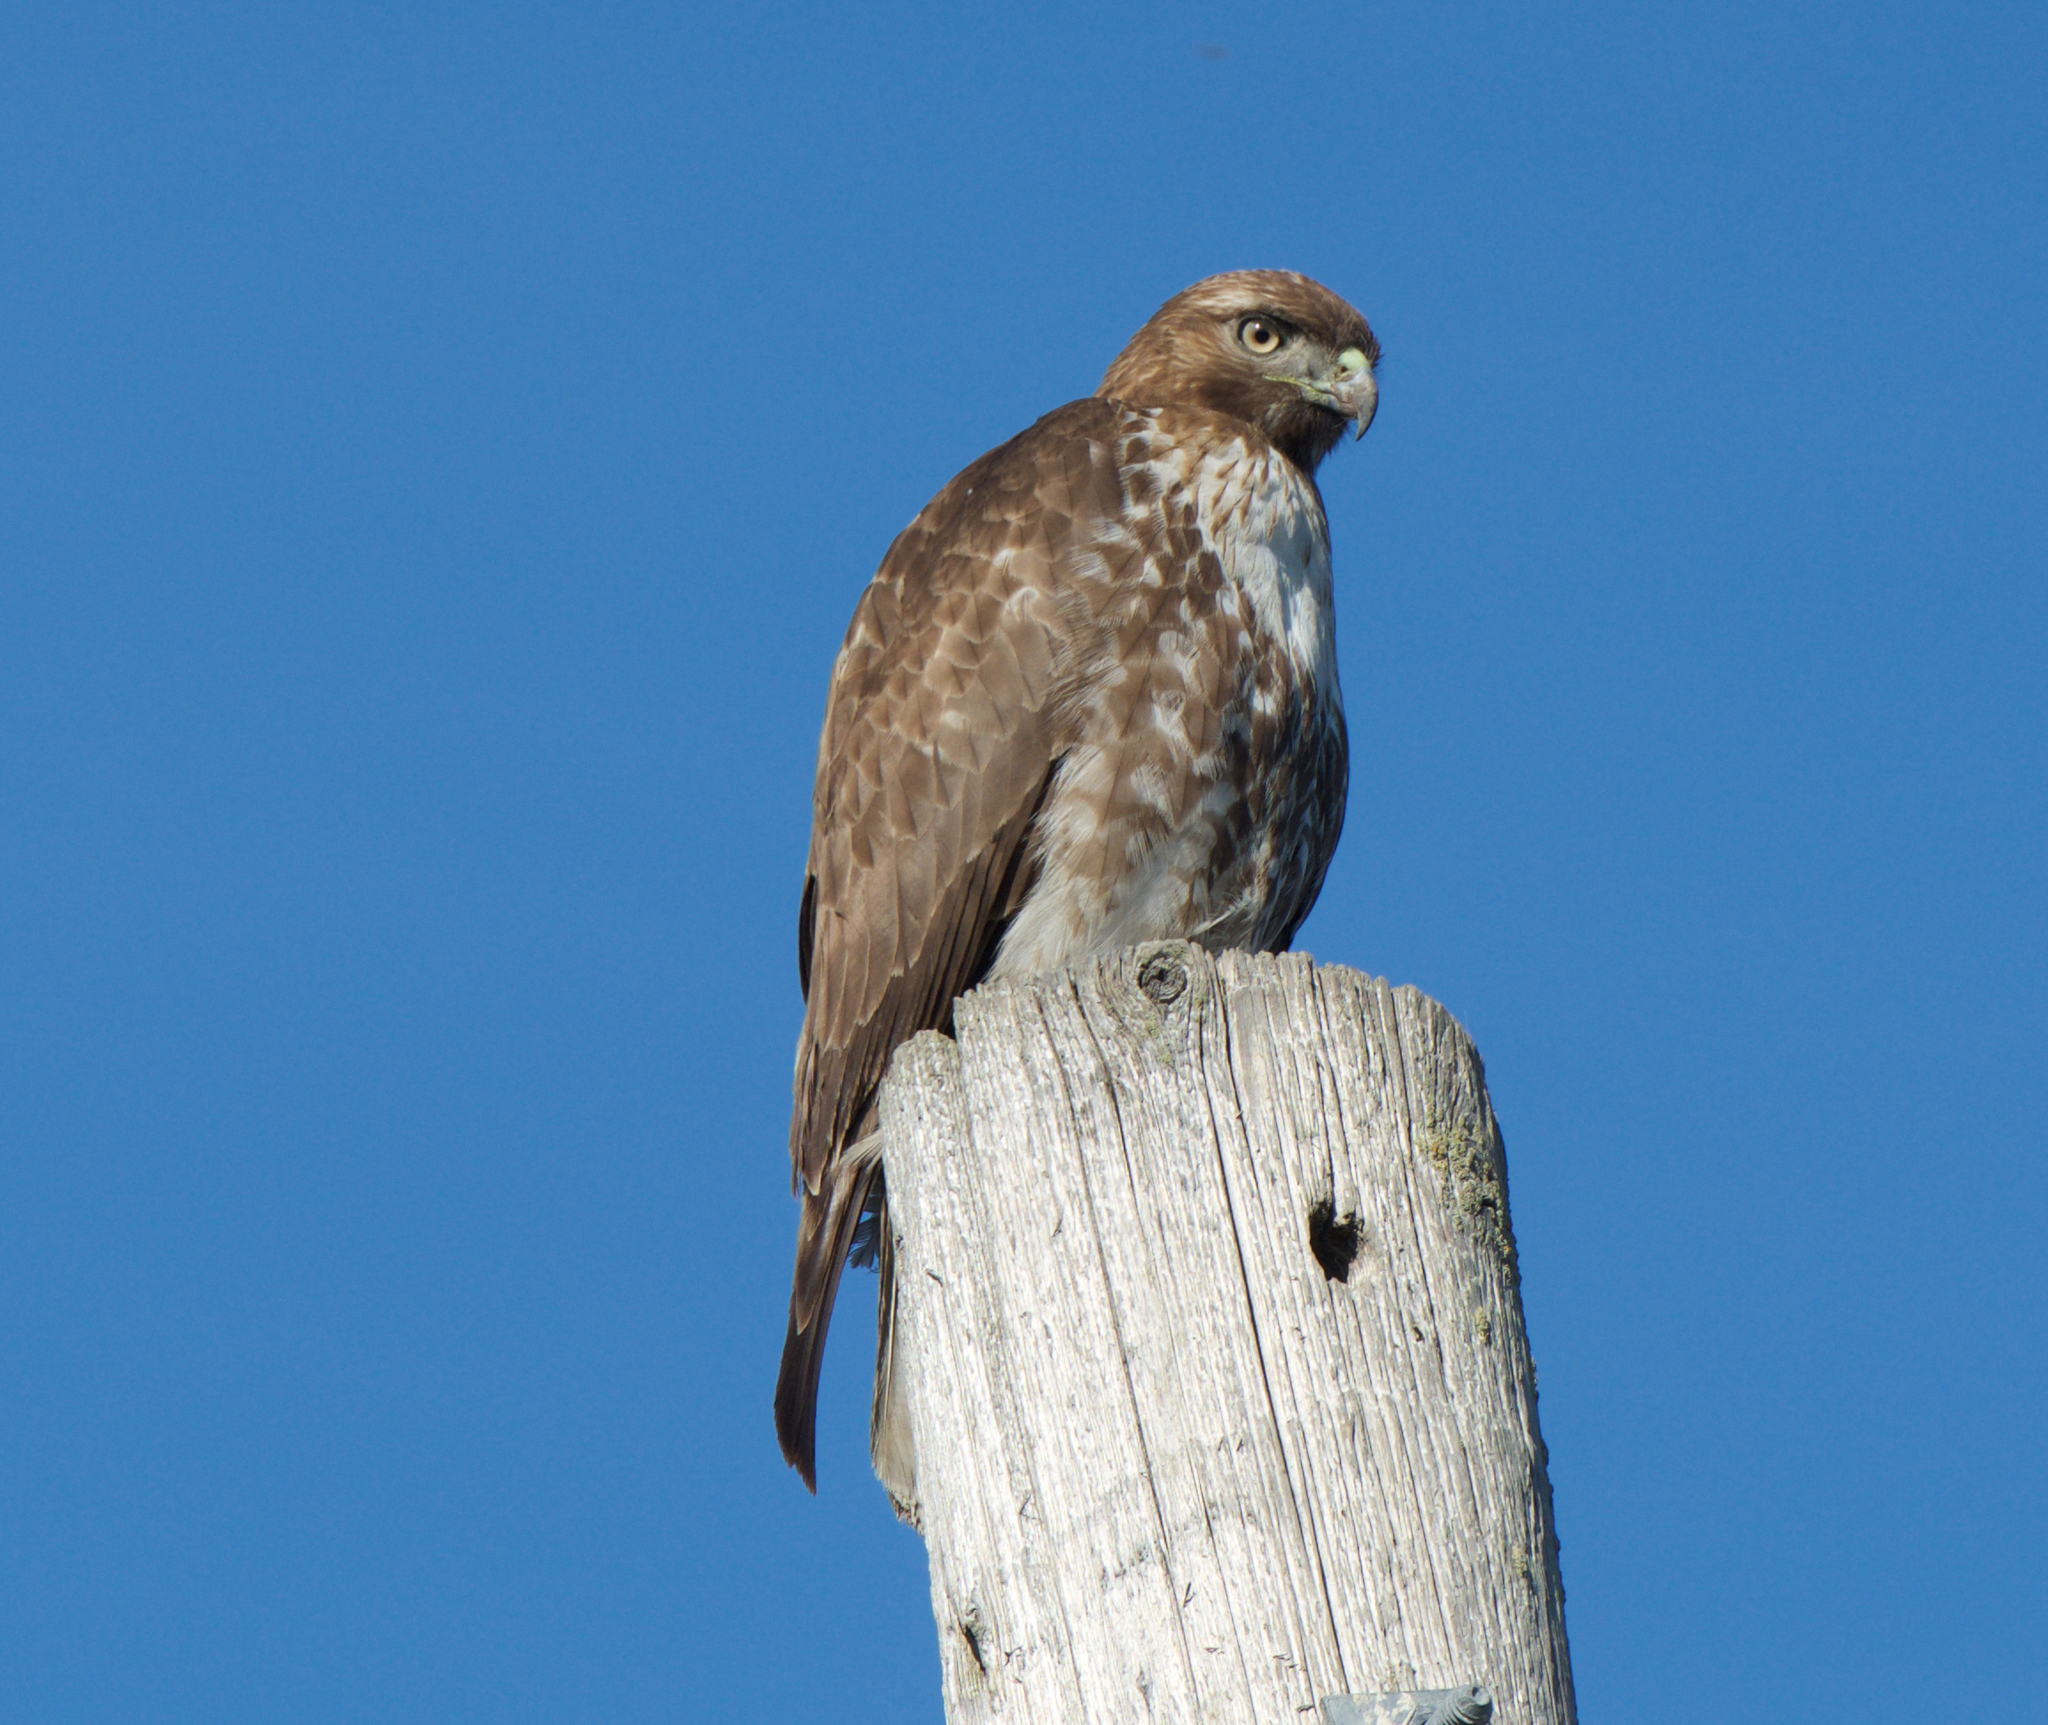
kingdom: Animalia
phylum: Chordata
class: Aves
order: Accipitriformes
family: Accipitridae
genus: Buteo
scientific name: Buteo jamaicensis
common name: Red-tailed hawk
